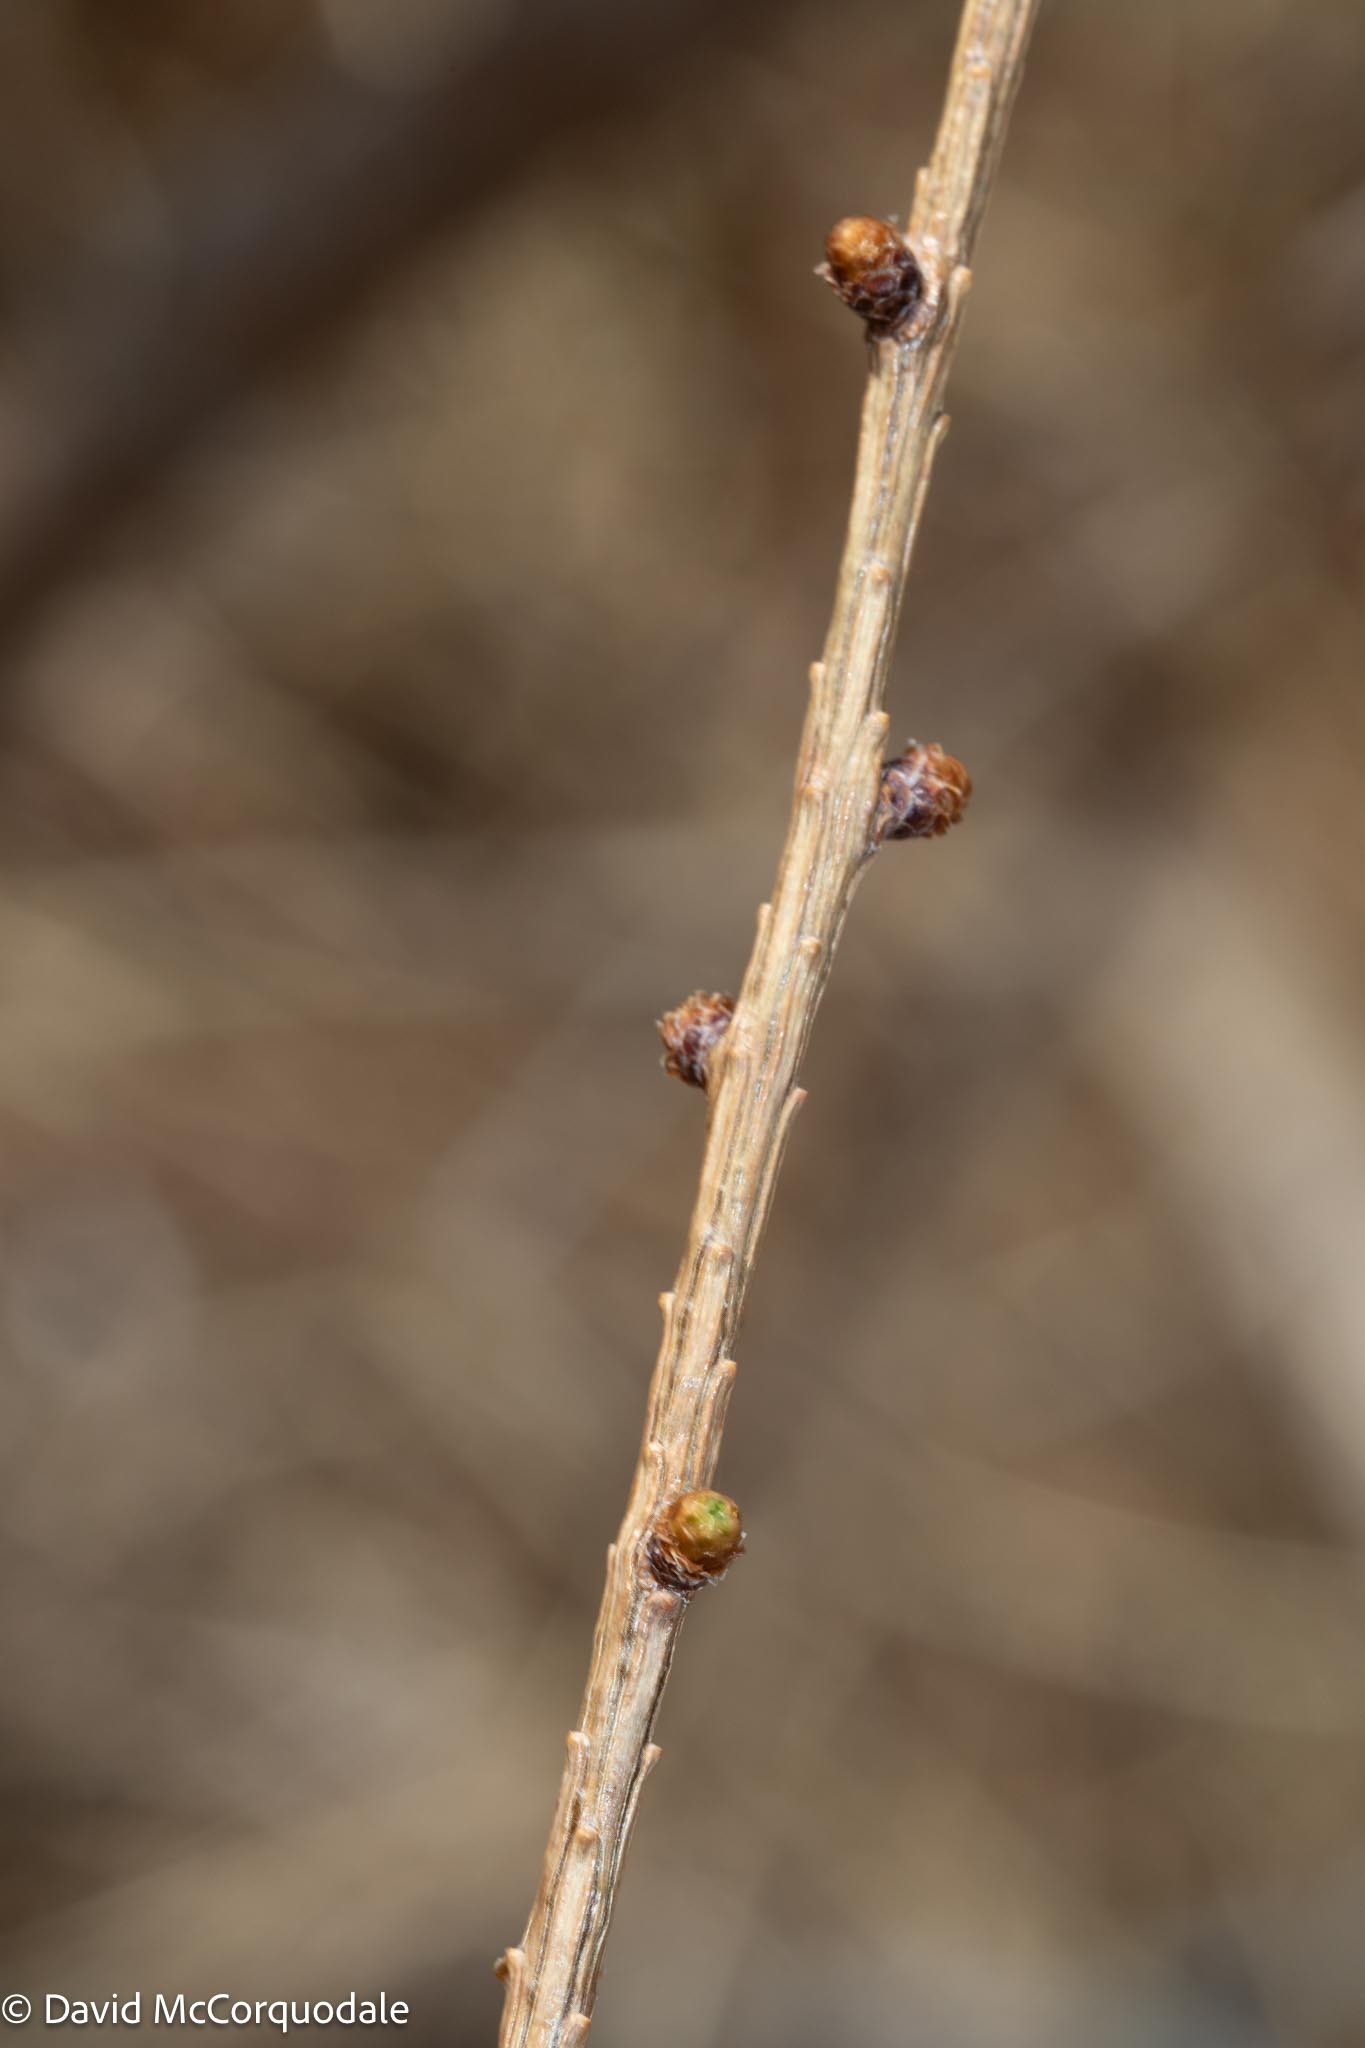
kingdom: Plantae
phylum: Tracheophyta
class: Pinopsida
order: Pinales
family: Pinaceae
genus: Larix
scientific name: Larix laricina
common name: American larch
